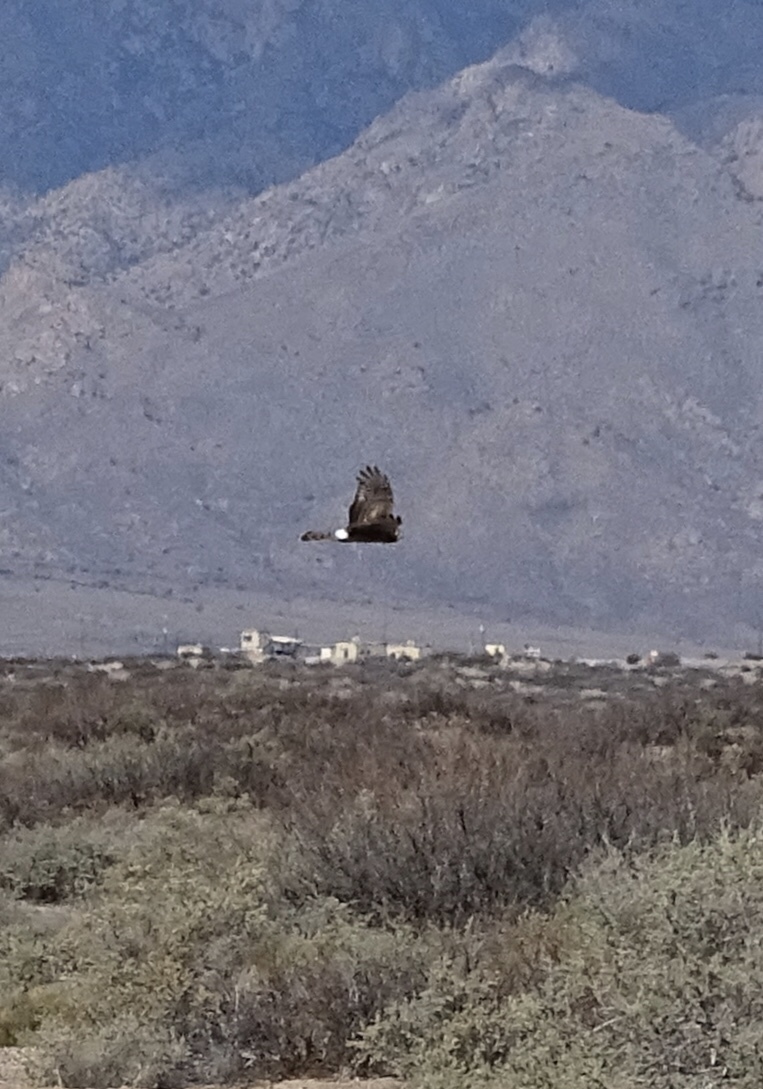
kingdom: Animalia
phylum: Chordata
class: Aves
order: Accipitriformes
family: Accipitridae
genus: Circus
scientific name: Circus cyaneus
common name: Hen harrier
